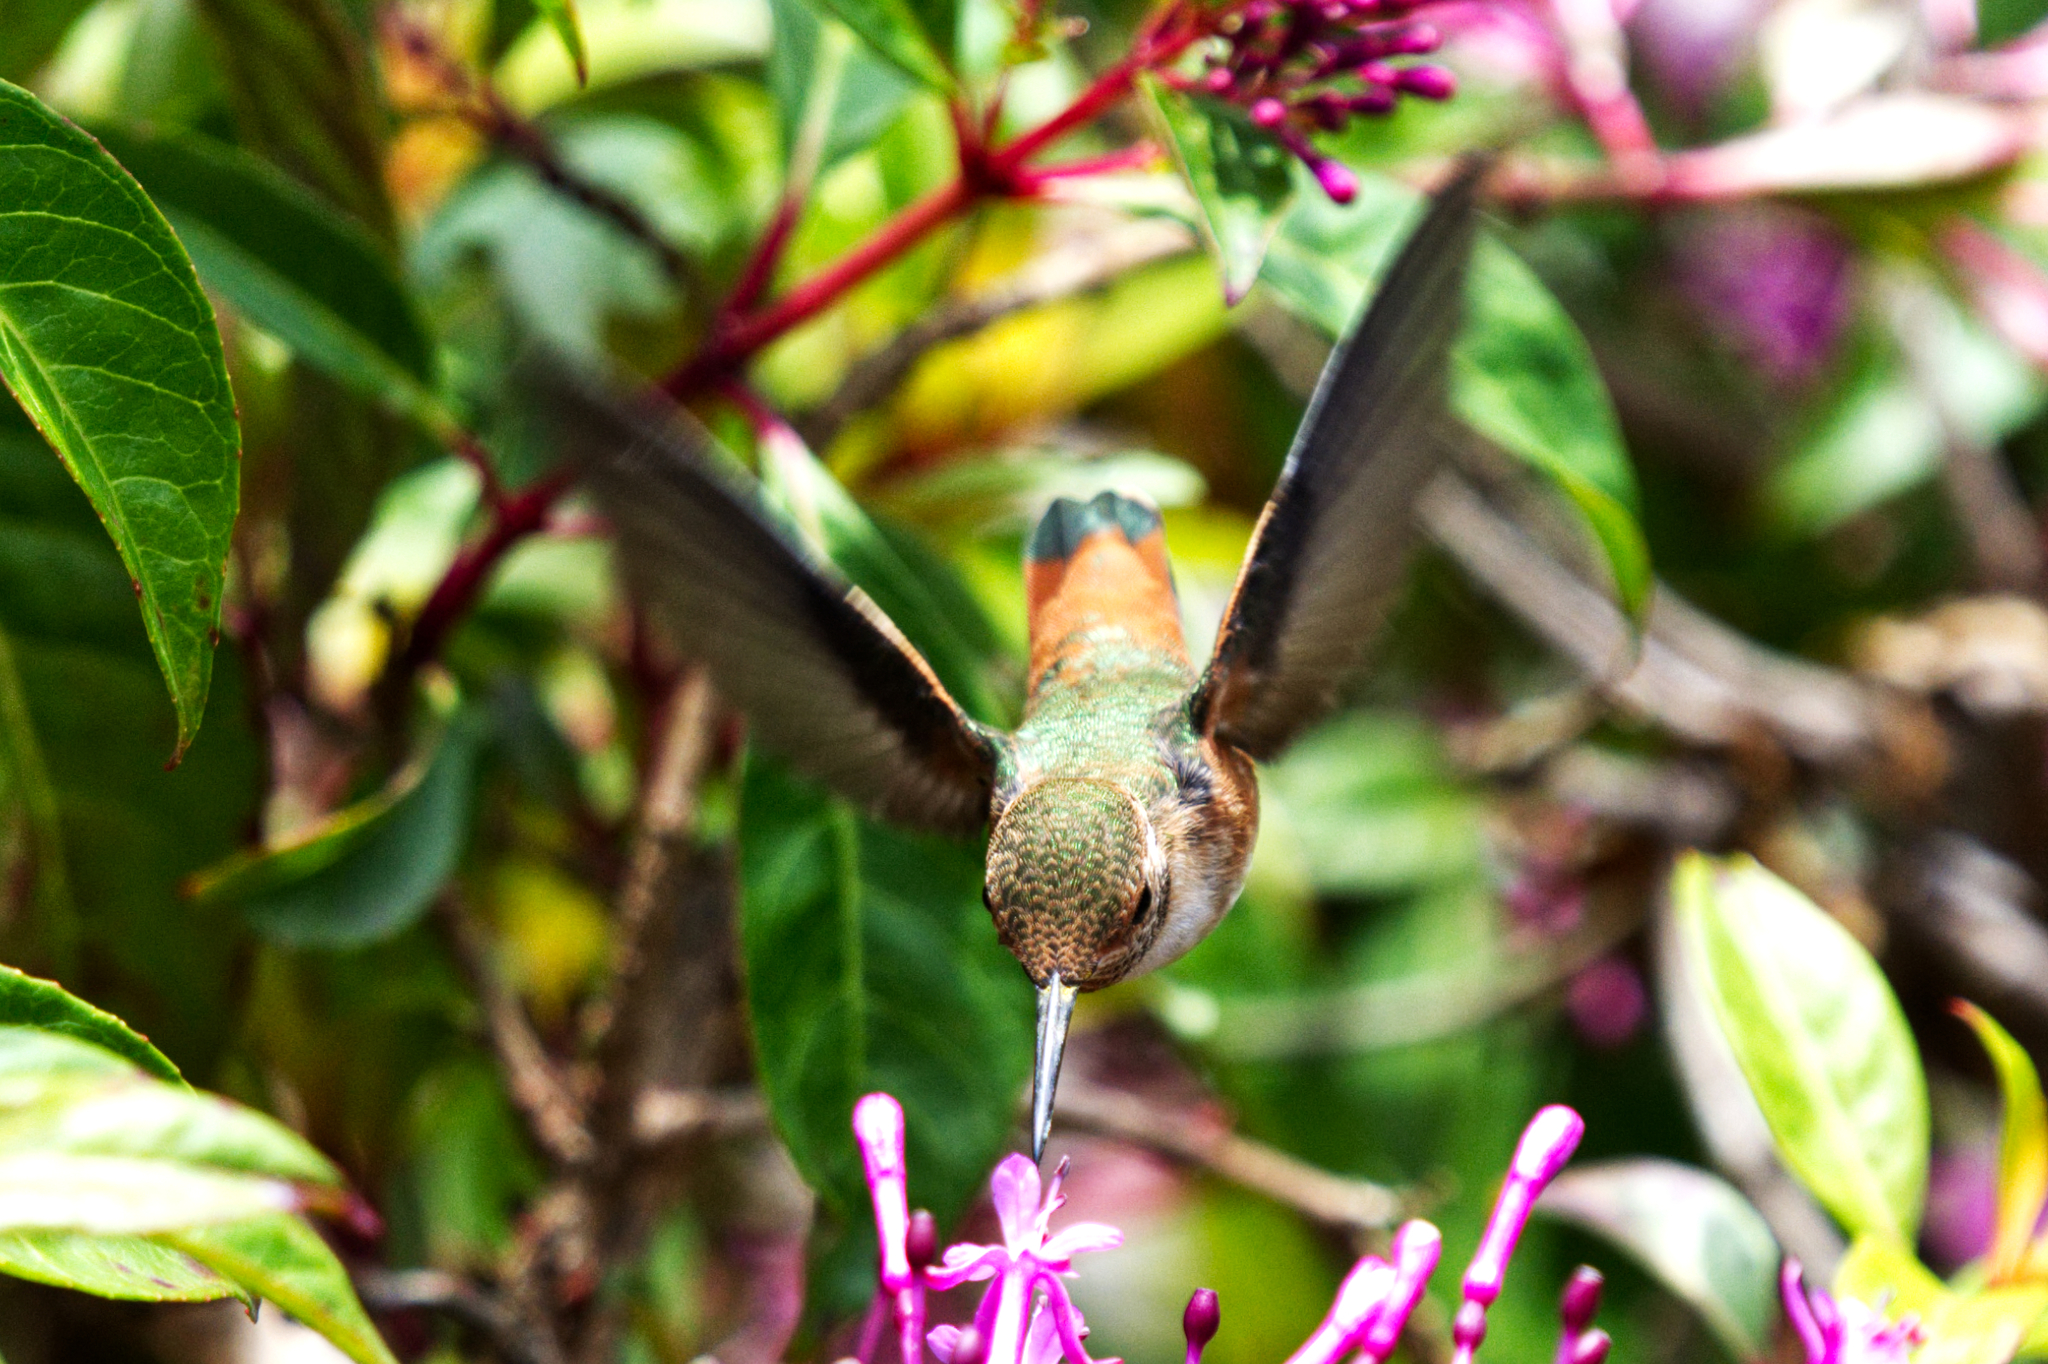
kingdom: Animalia
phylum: Chordata
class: Aves
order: Apodiformes
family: Trochilidae
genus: Selasphorus
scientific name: Selasphorus sasin
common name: Allen's hummingbird
